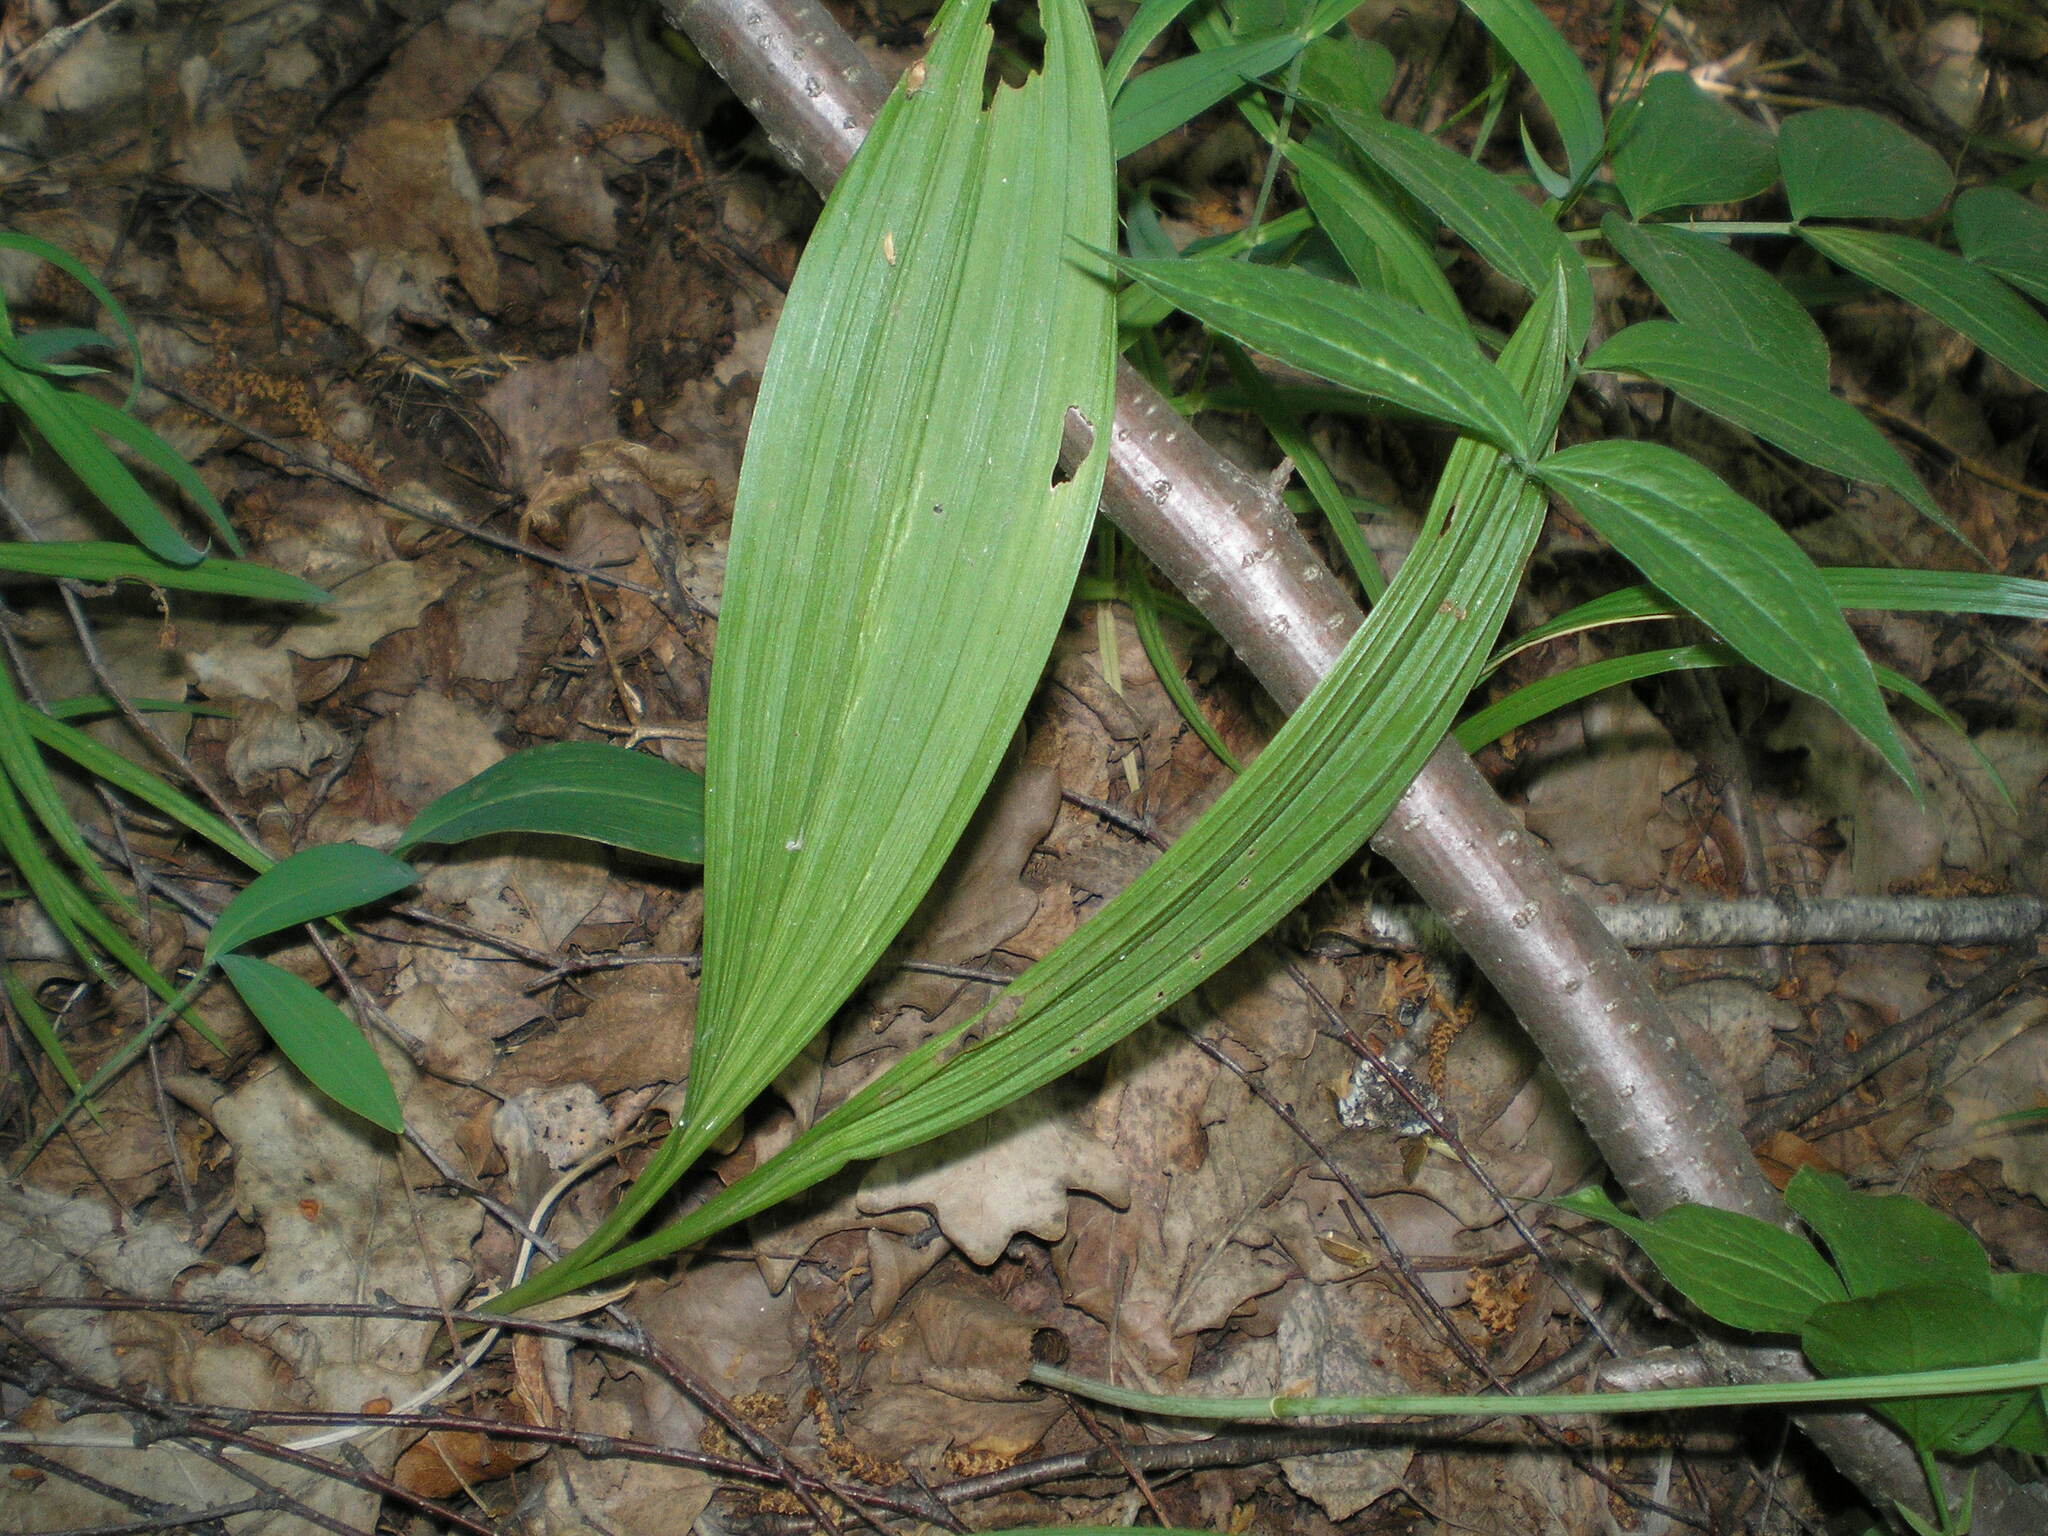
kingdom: Plantae
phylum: Tracheophyta
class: Liliopsida
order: Liliales
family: Melanthiaceae
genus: Veratrum
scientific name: Veratrum nigrum
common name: Black veratrum
